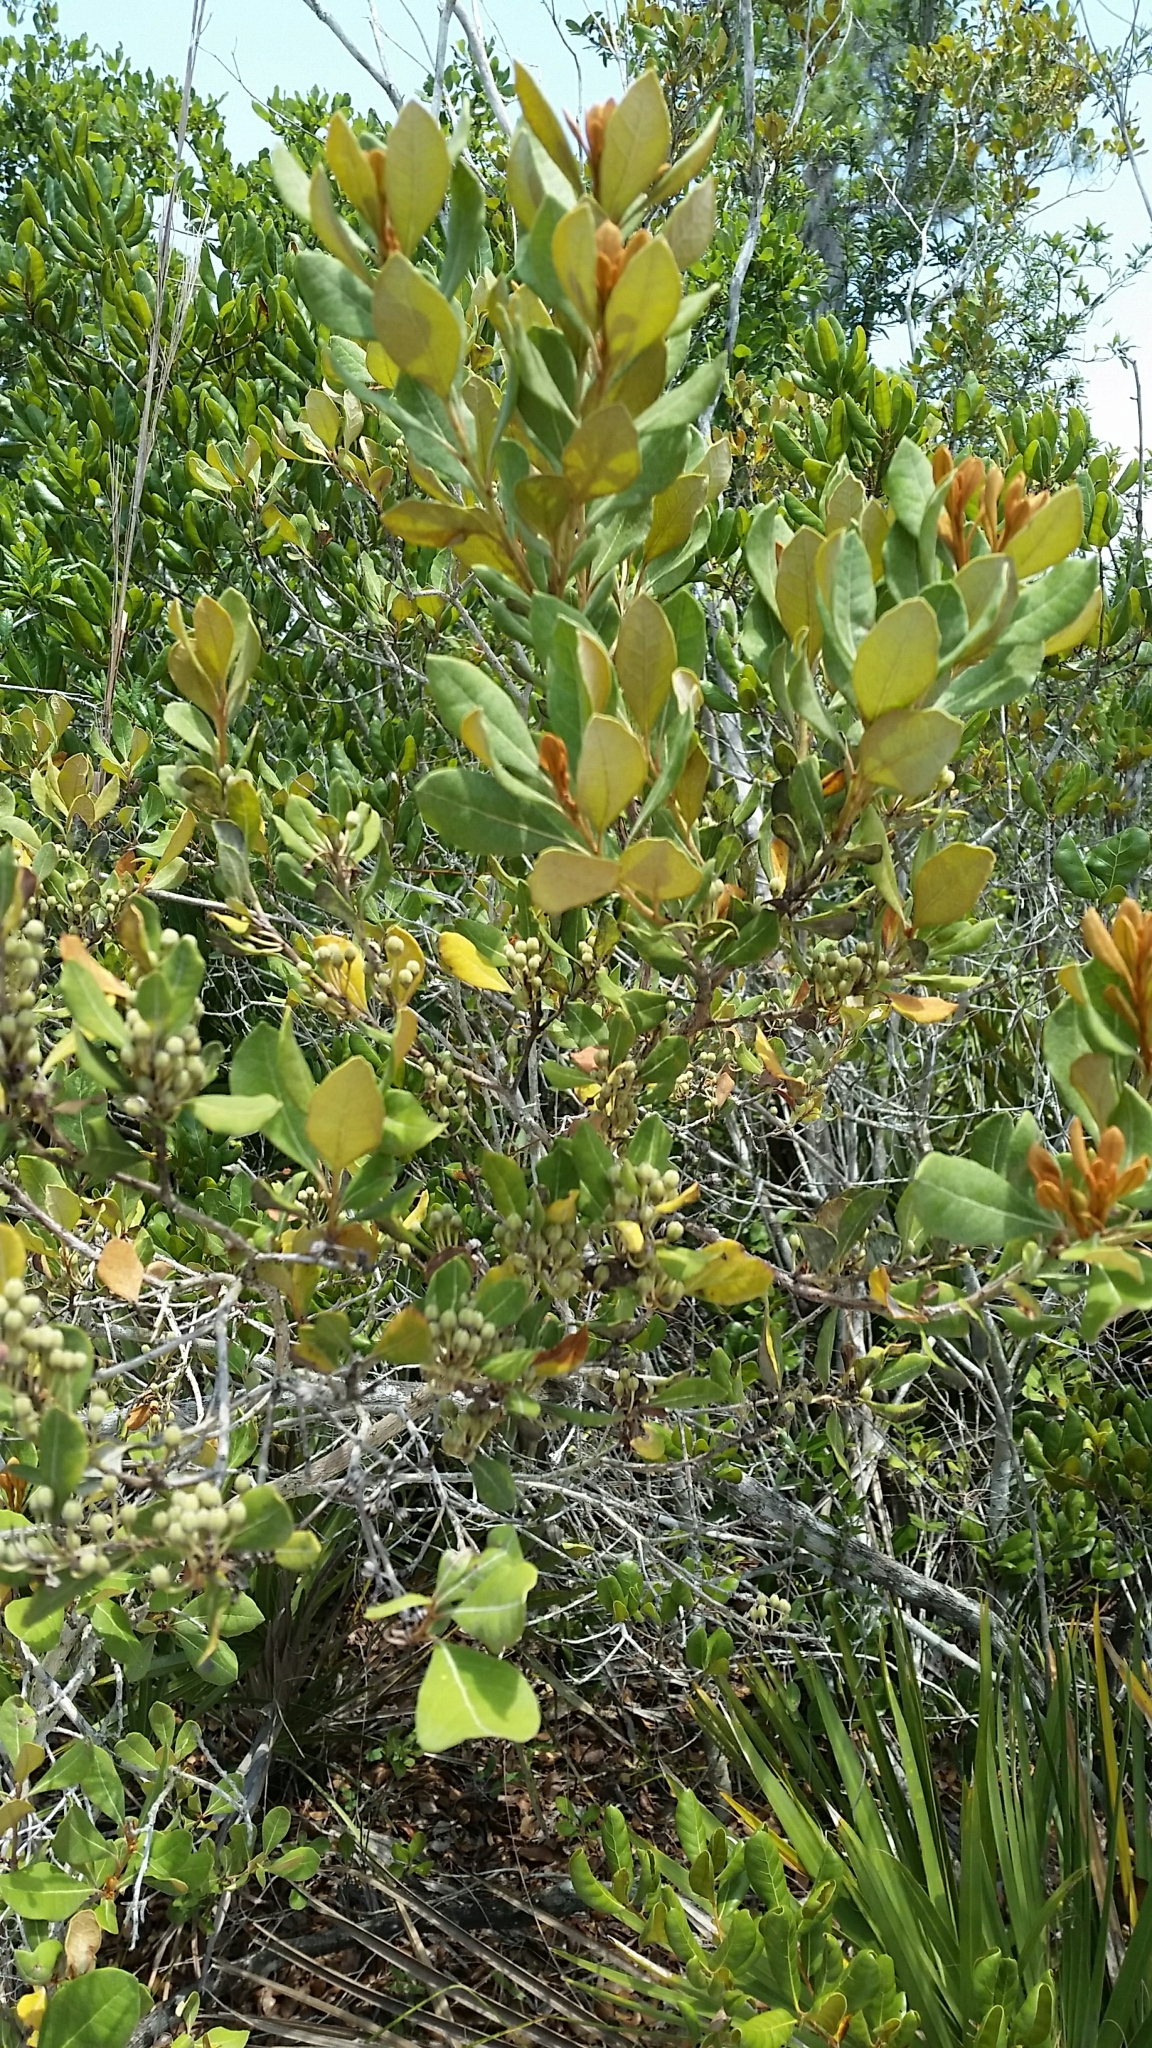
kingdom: Plantae
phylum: Tracheophyta
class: Magnoliopsida
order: Ericales
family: Ericaceae
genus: Lyonia
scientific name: Lyonia ferruginea
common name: Rusty lyonia
